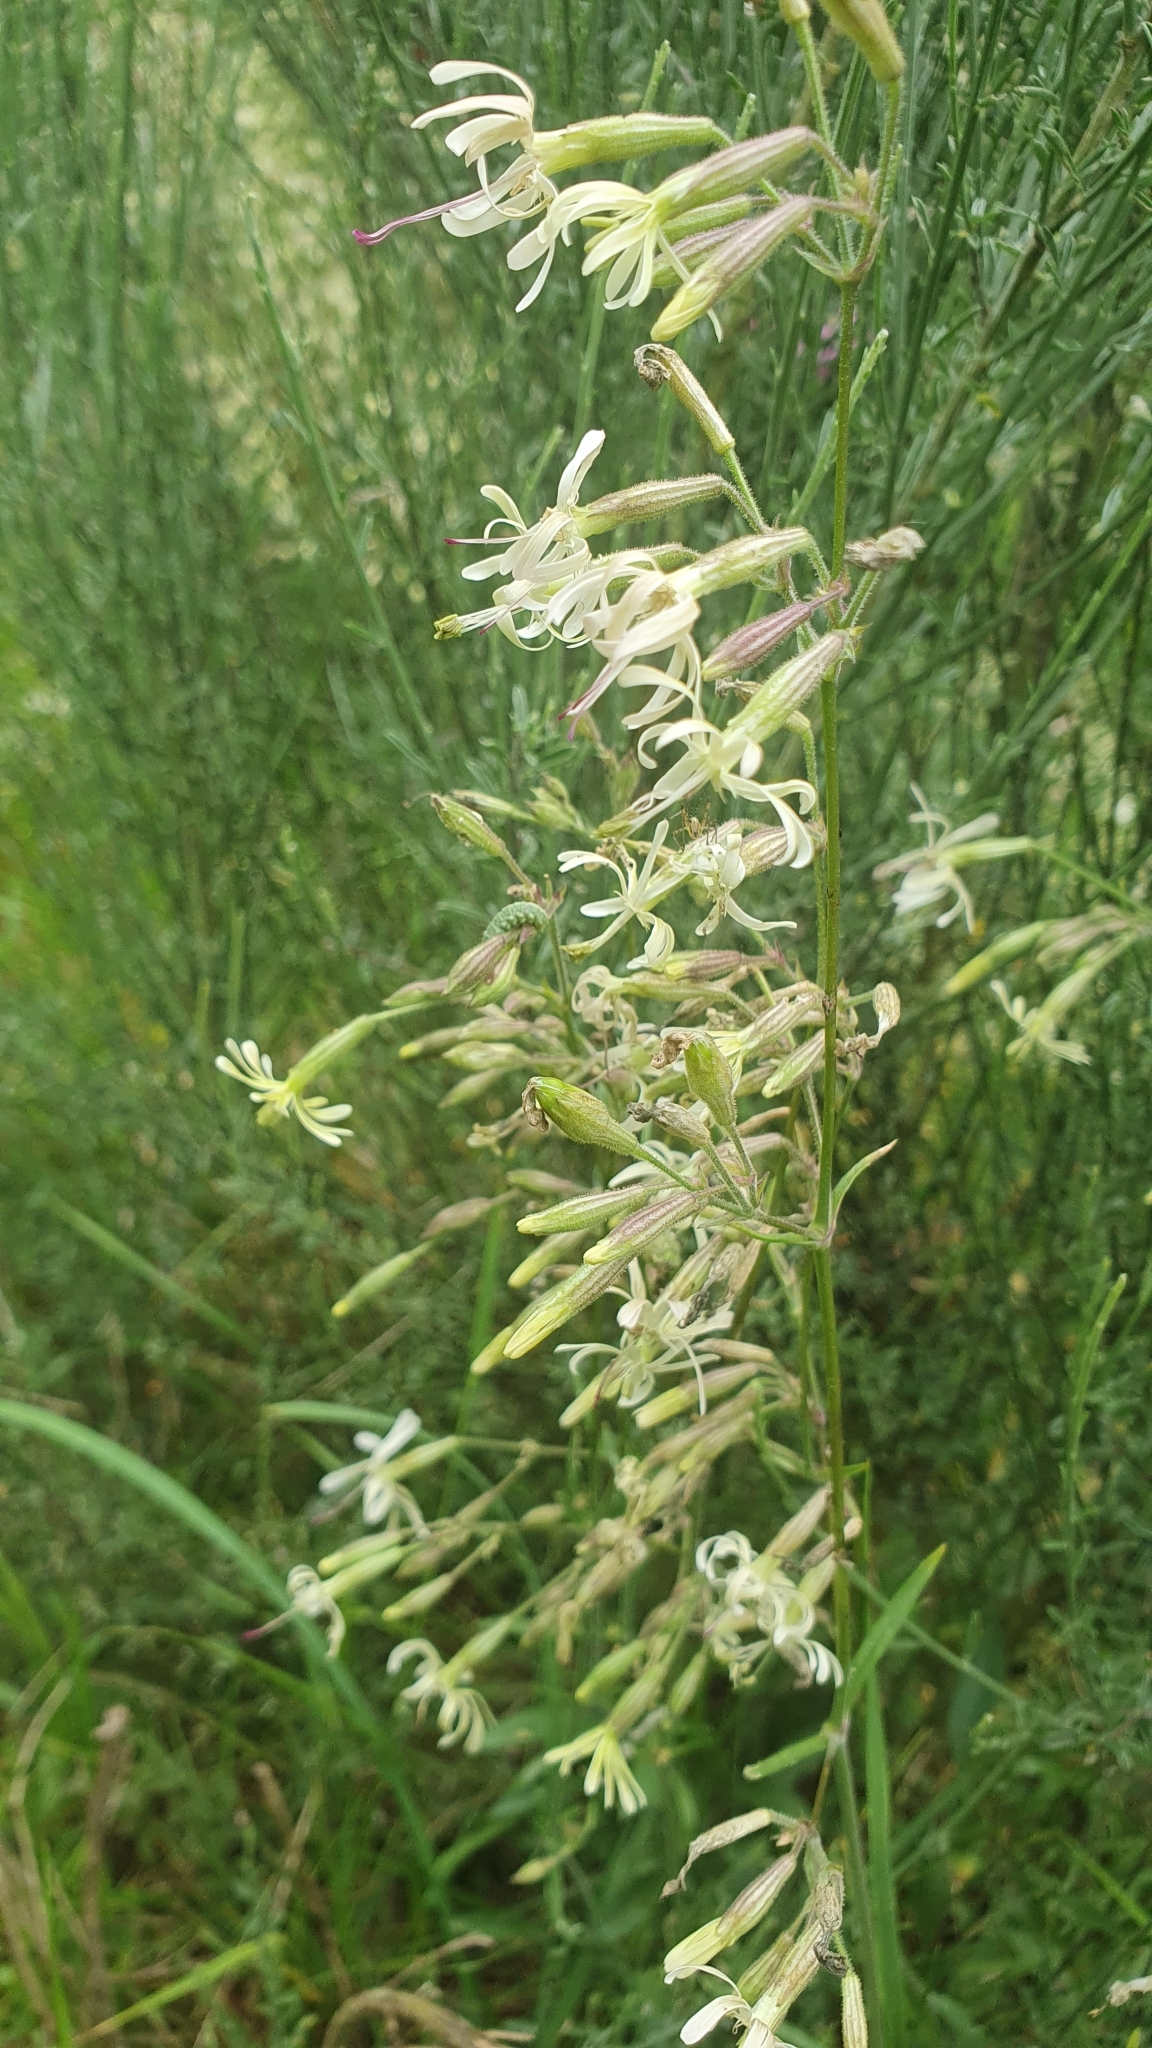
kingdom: Plantae
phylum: Tracheophyta
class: Magnoliopsida
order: Caryophyllales
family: Caryophyllaceae
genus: Silene
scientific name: Silene nutans
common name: Nottingham catchfly
